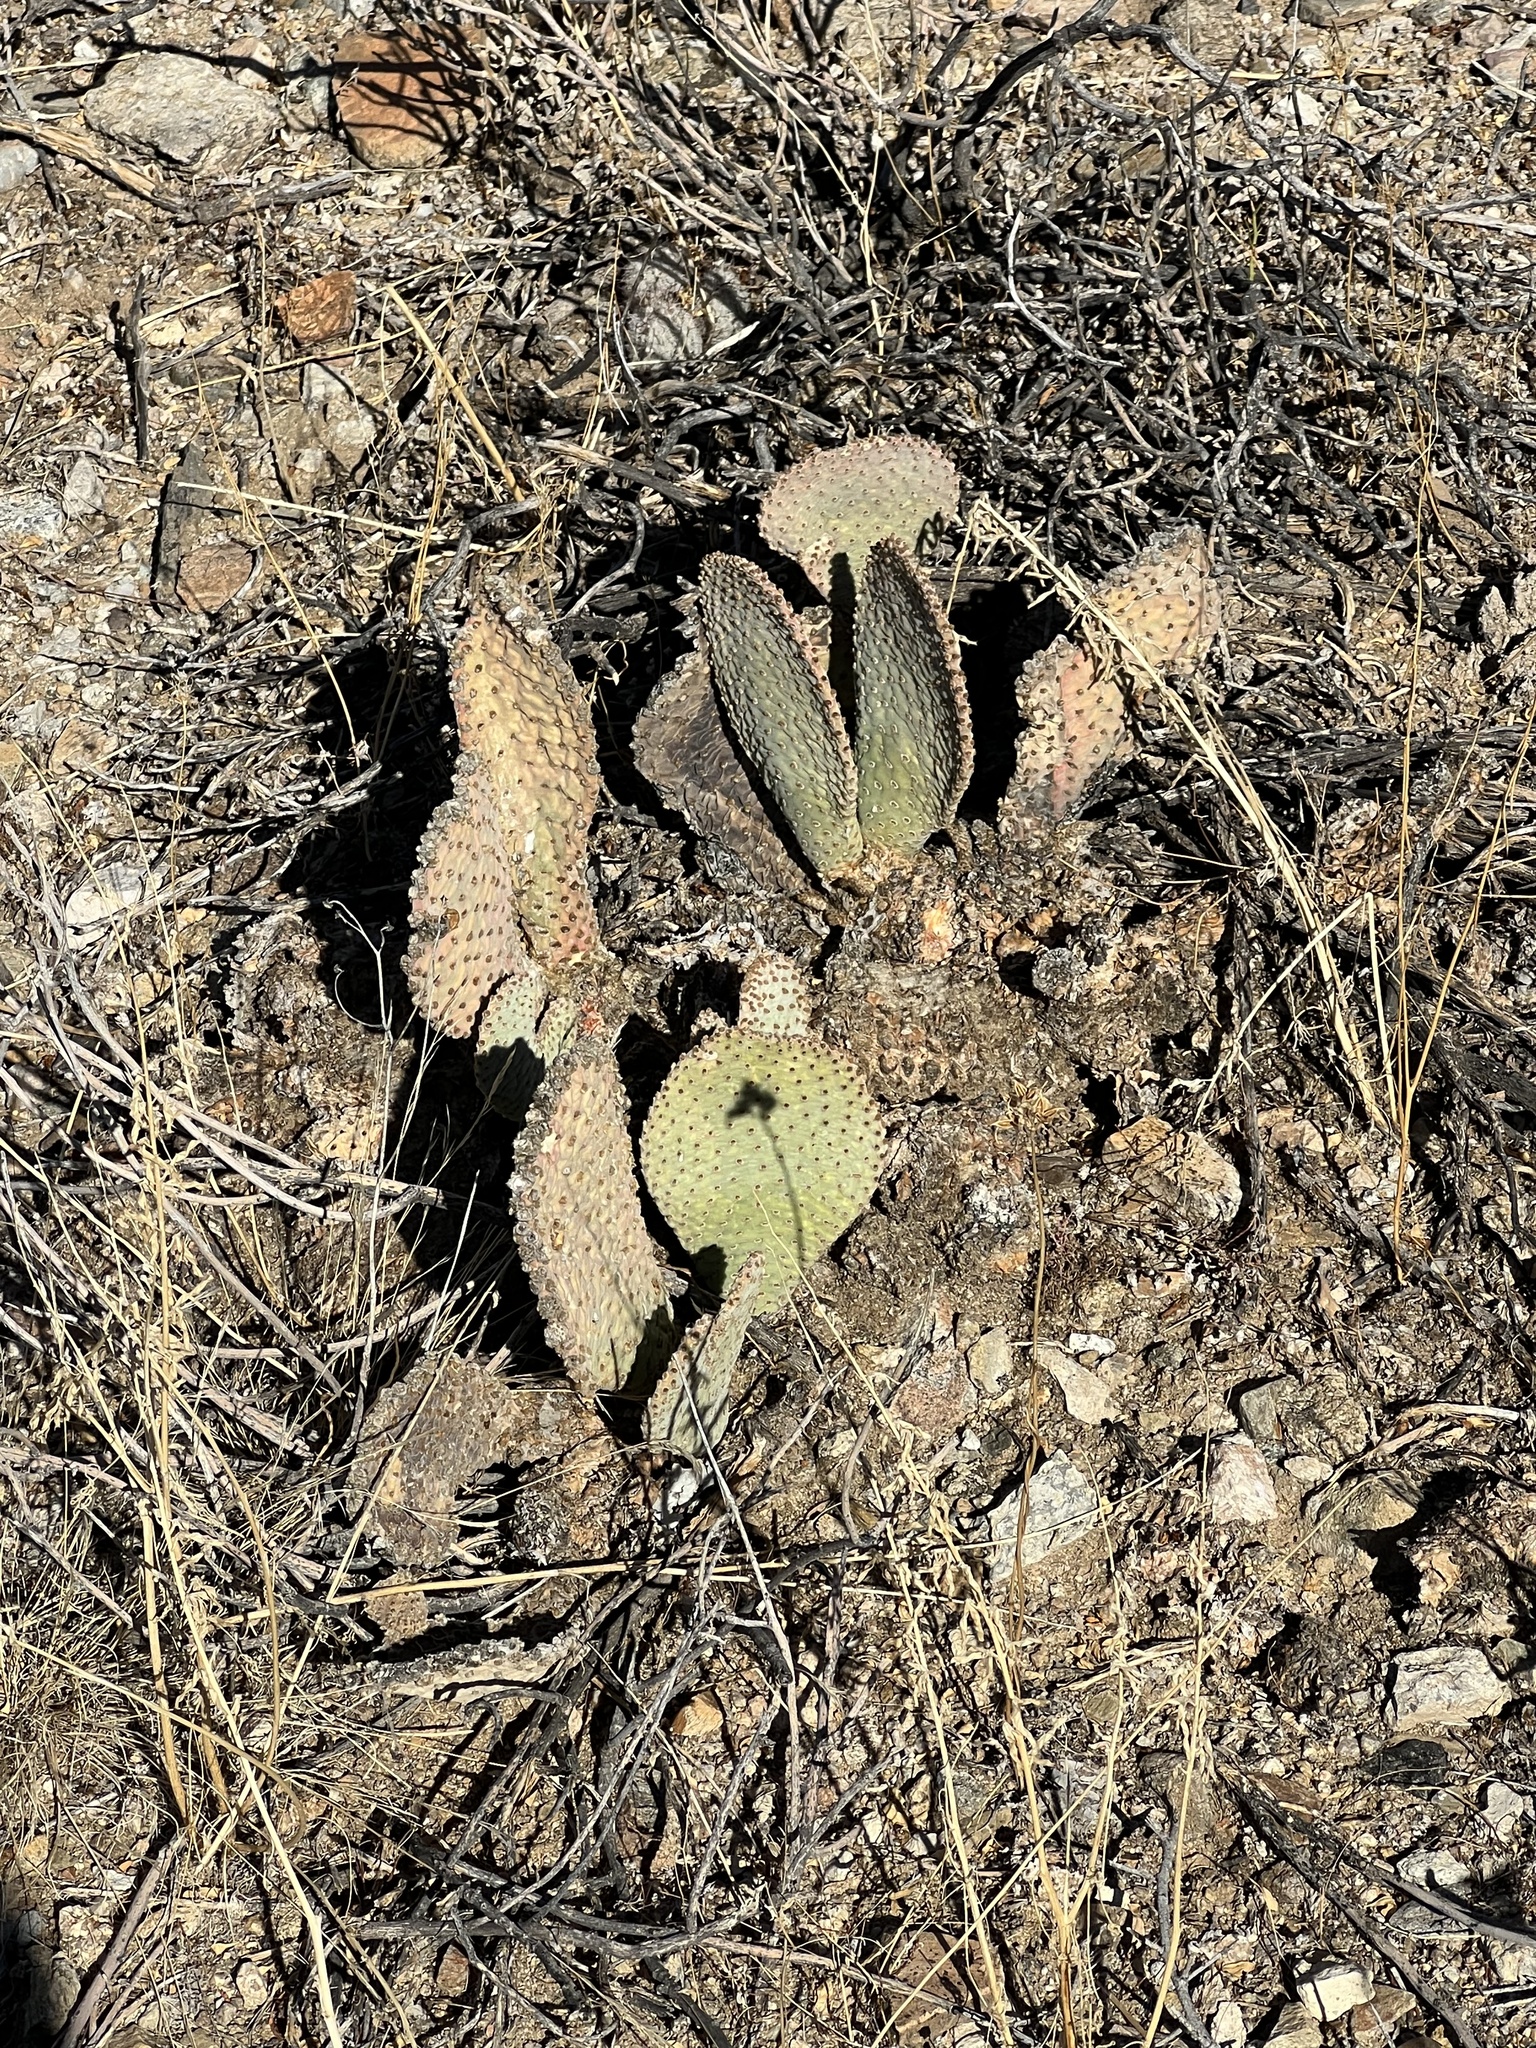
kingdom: Plantae
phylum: Tracheophyta
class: Magnoliopsida
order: Caryophyllales
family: Cactaceae
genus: Opuntia
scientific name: Opuntia basilaris
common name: Beavertail prickly-pear
